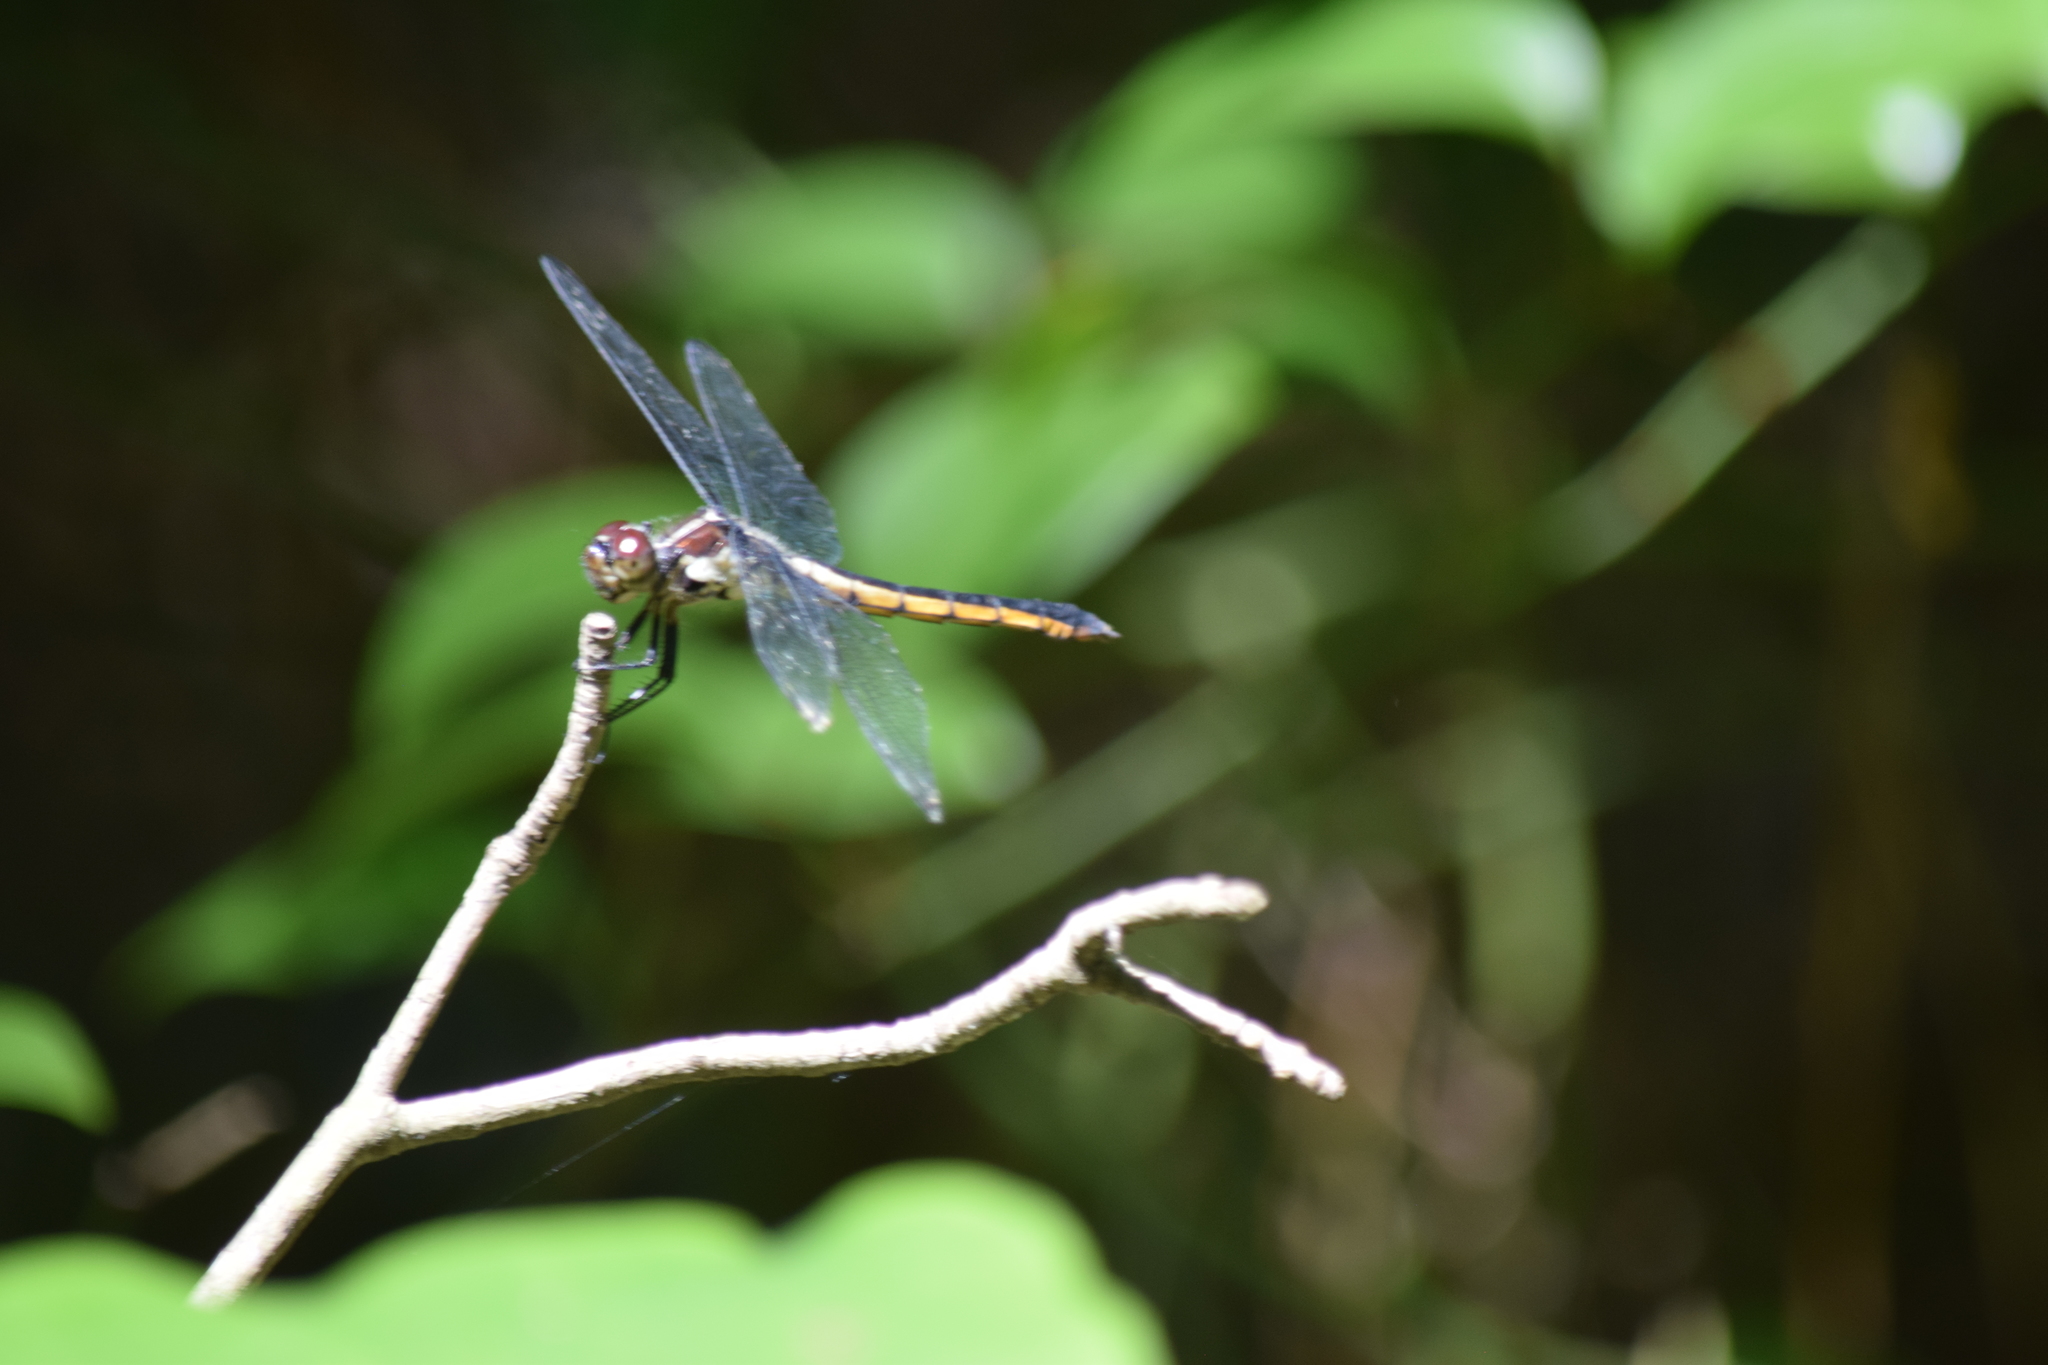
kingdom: Animalia
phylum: Arthropoda
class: Insecta
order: Odonata
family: Libellulidae
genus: Libellula
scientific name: Libellula incesta
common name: Slaty skimmer
